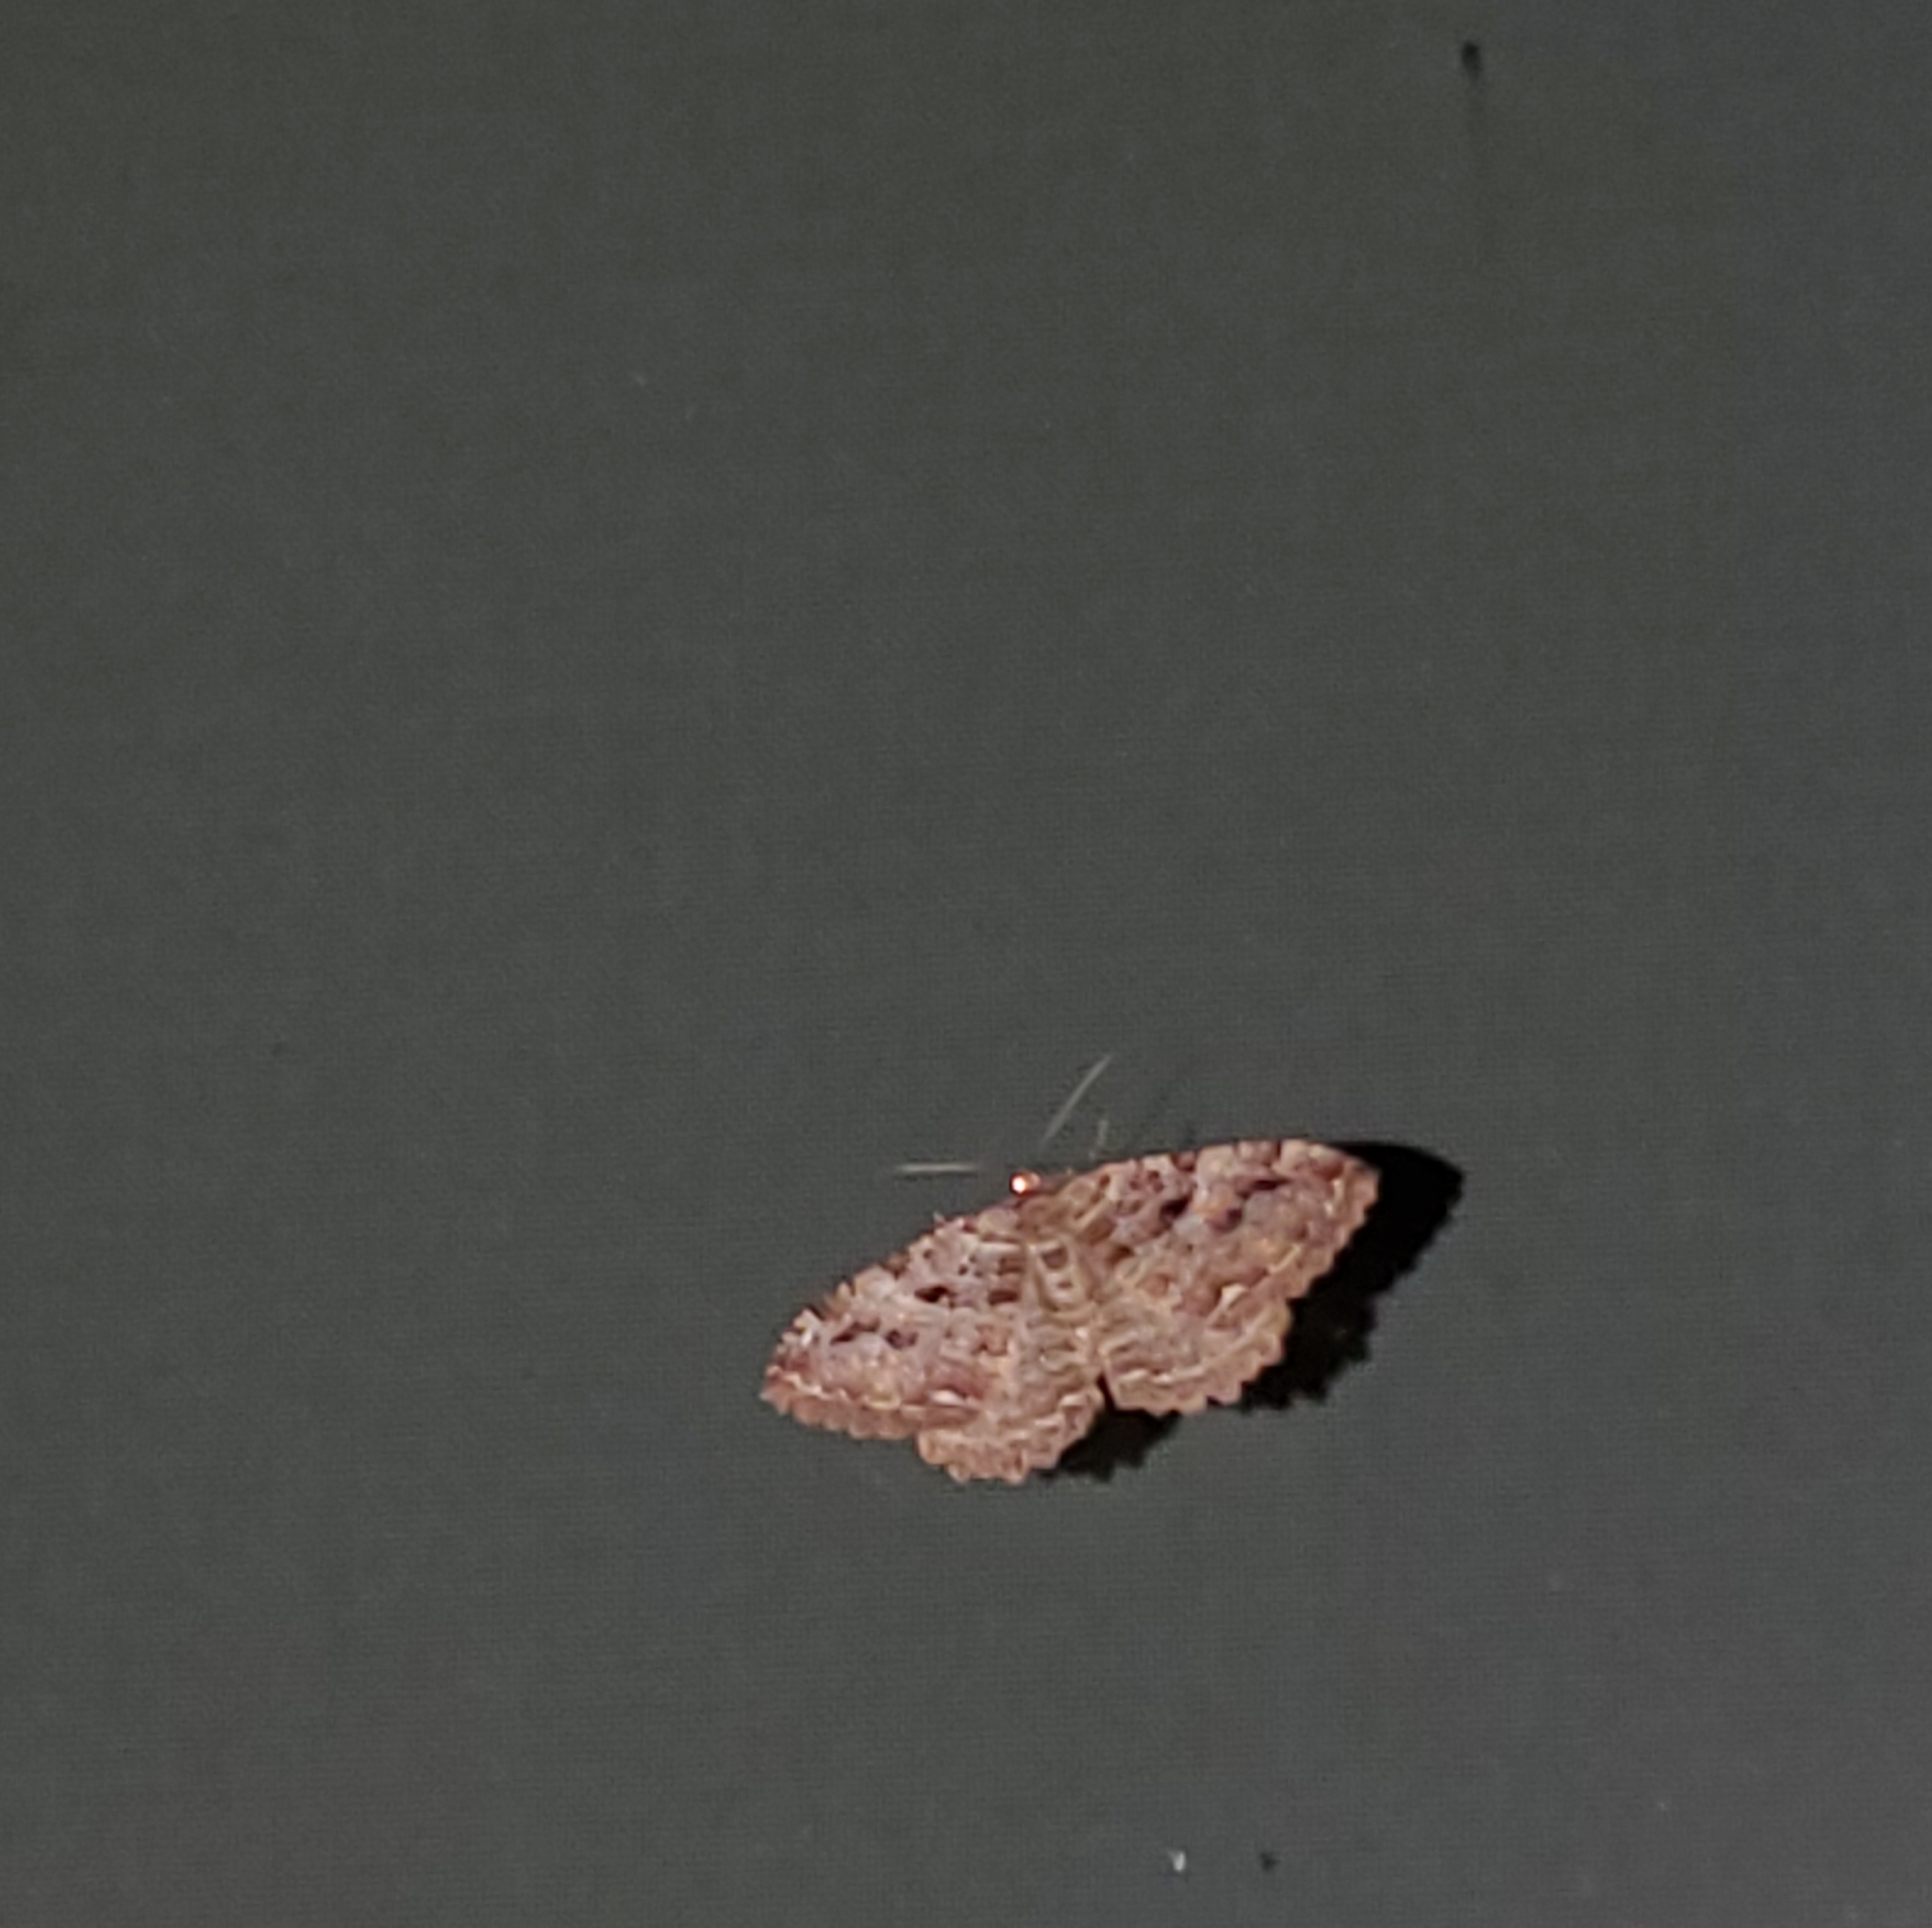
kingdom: Animalia
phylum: Arthropoda
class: Insecta
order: Lepidoptera
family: Geometridae
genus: Triphosa
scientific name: Triphosa haesitata
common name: Tissue moth
